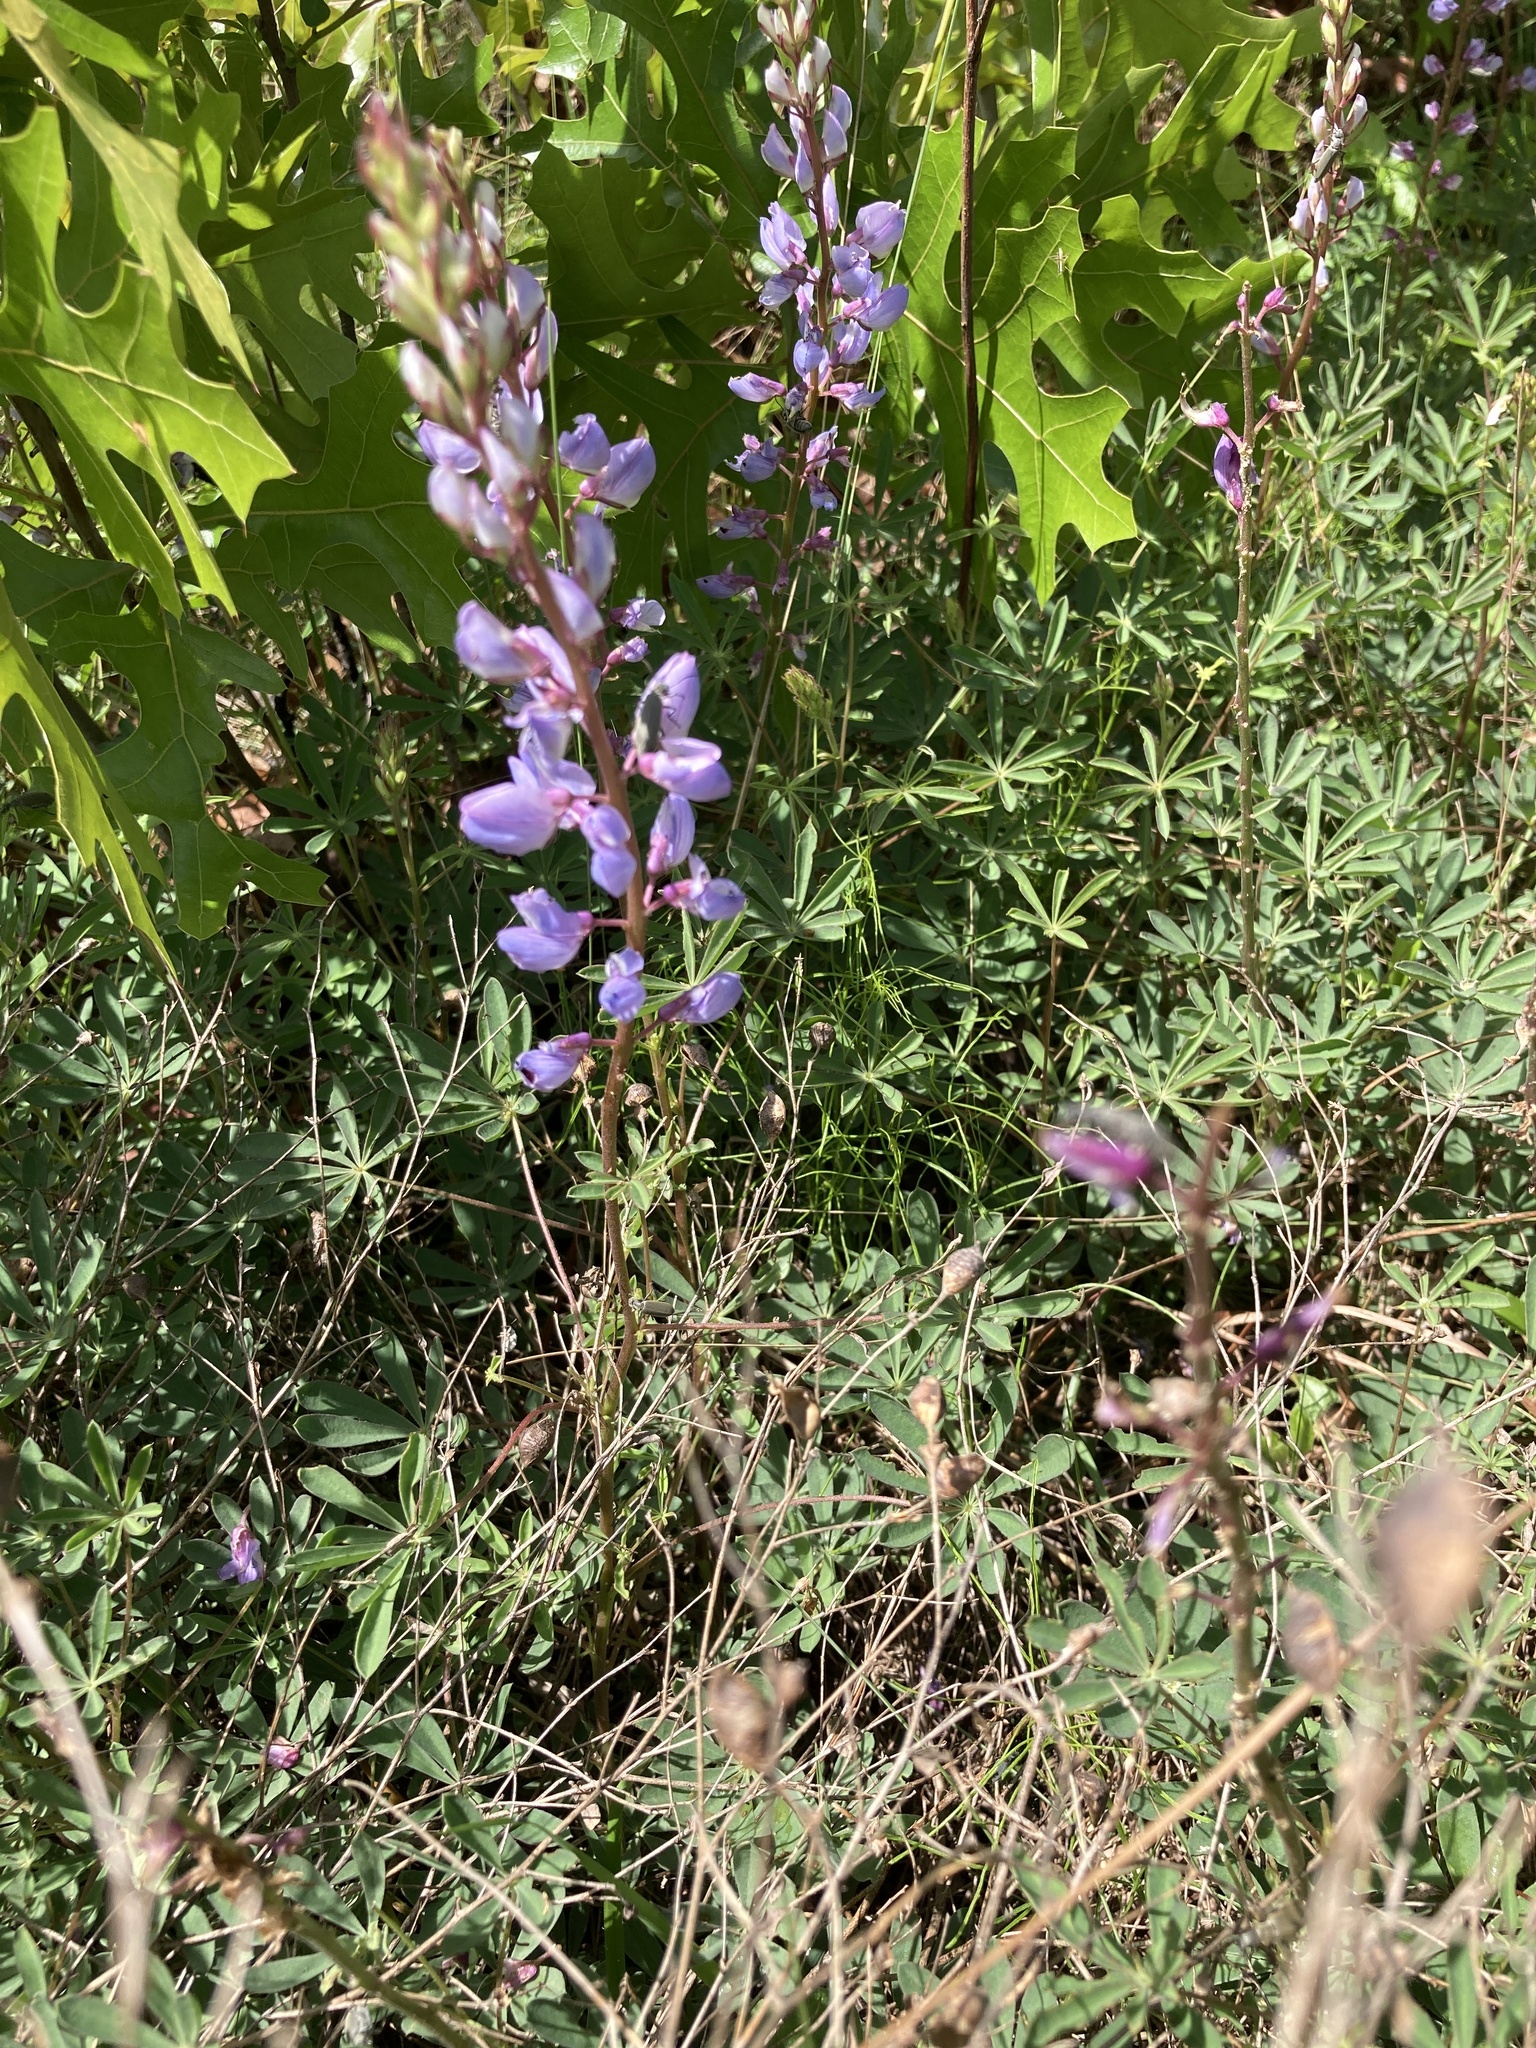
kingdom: Plantae
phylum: Tracheophyta
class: Magnoliopsida
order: Fabales
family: Fabaceae
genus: Lupinus
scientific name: Lupinus perennis
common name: Sundial lupine
